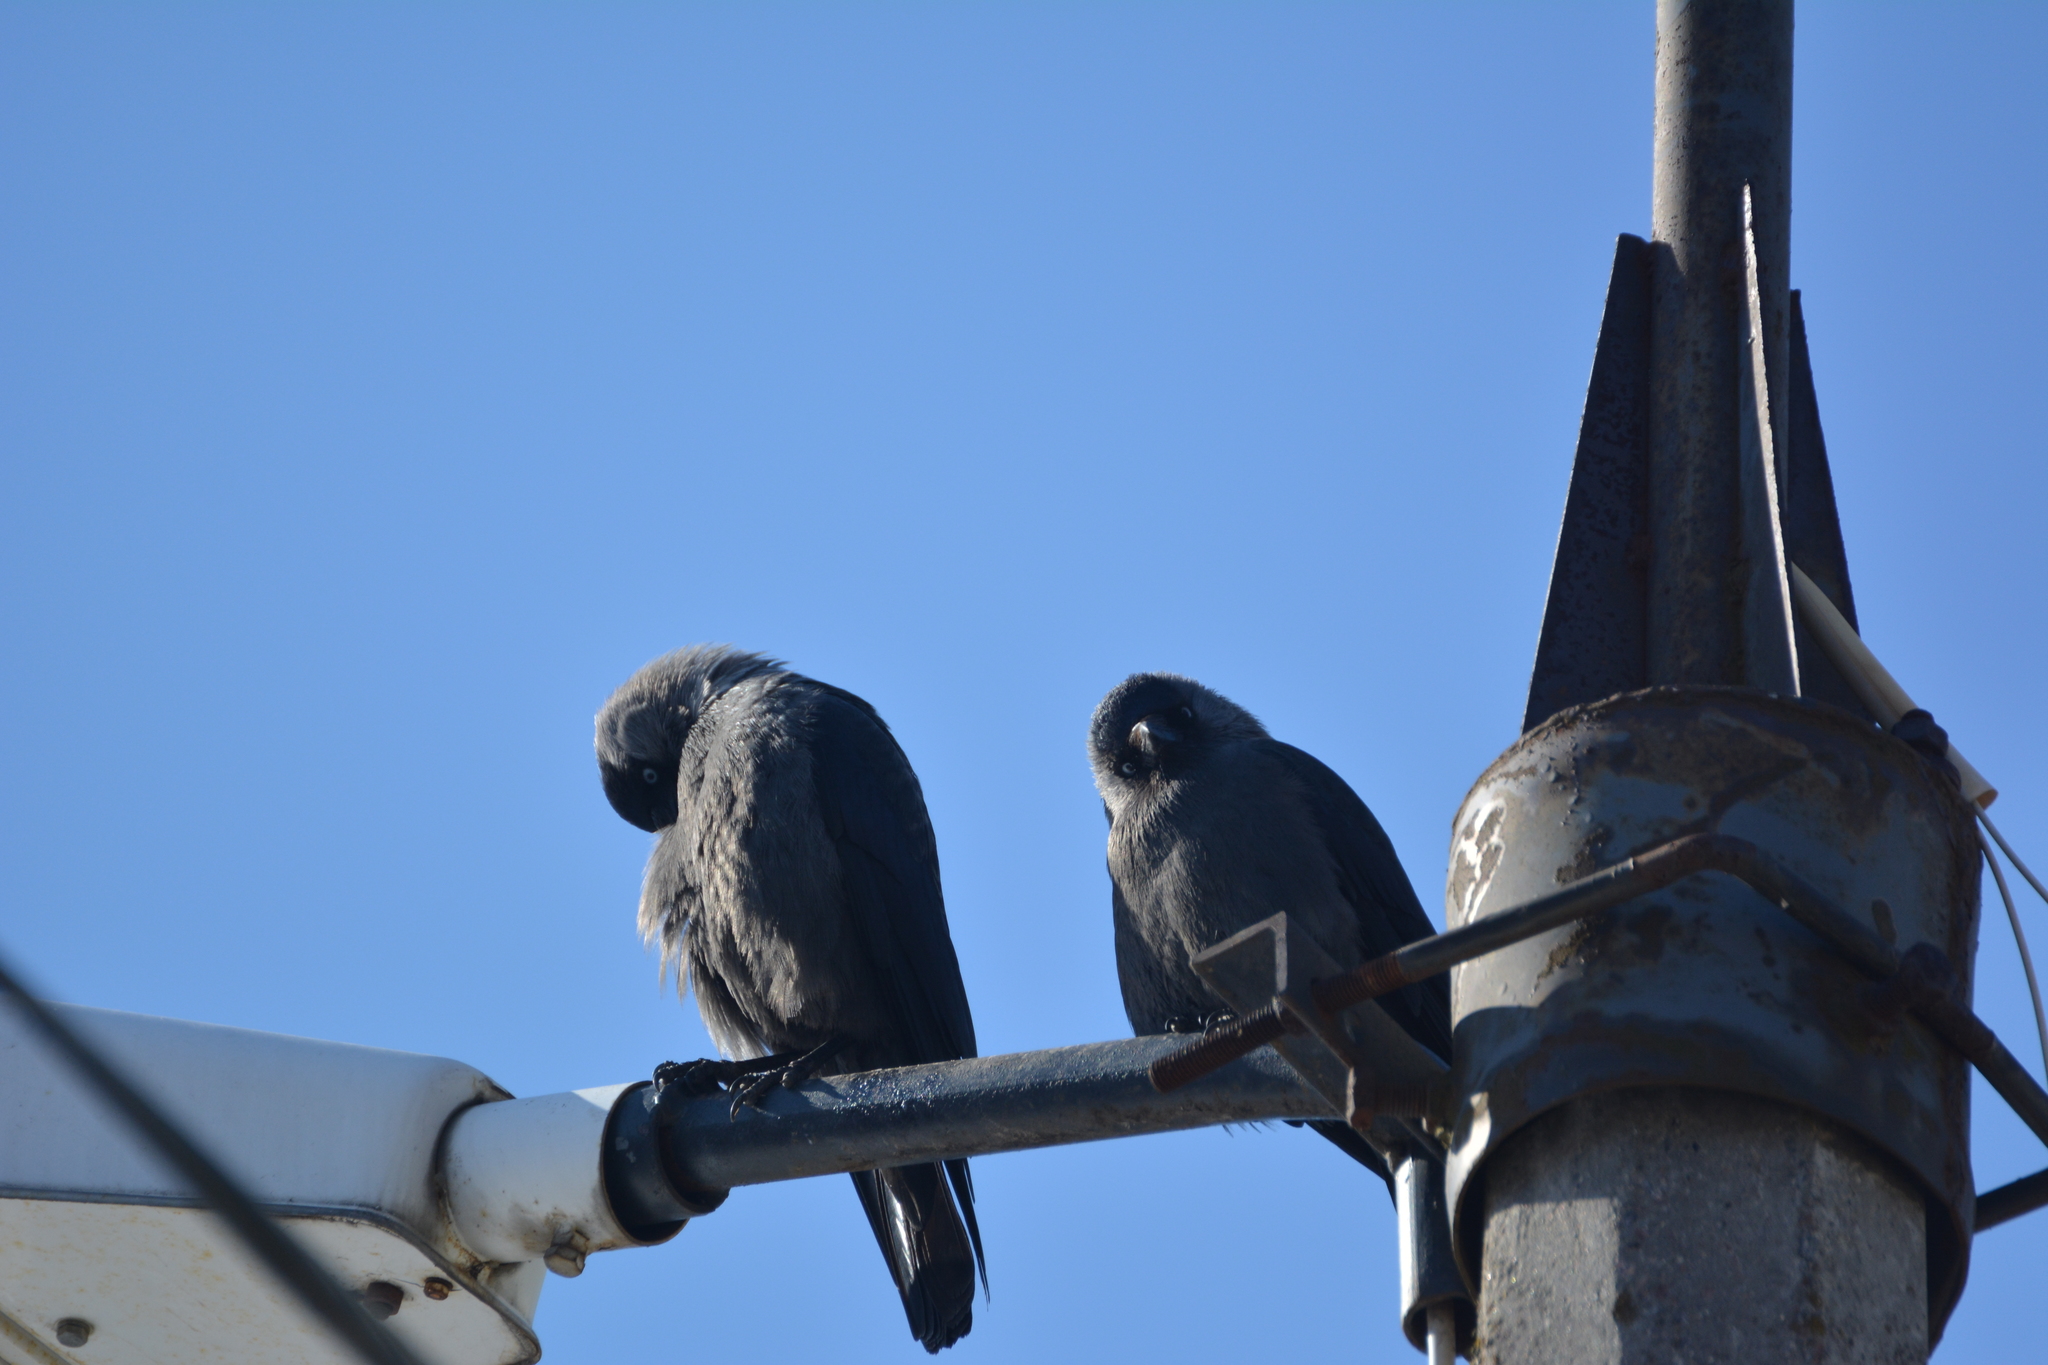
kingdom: Animalia
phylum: Chordata
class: Aves
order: Passeriformes
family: Corvidae
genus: Coloeus
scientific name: Coloeus monedula
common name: Western jackdaw
